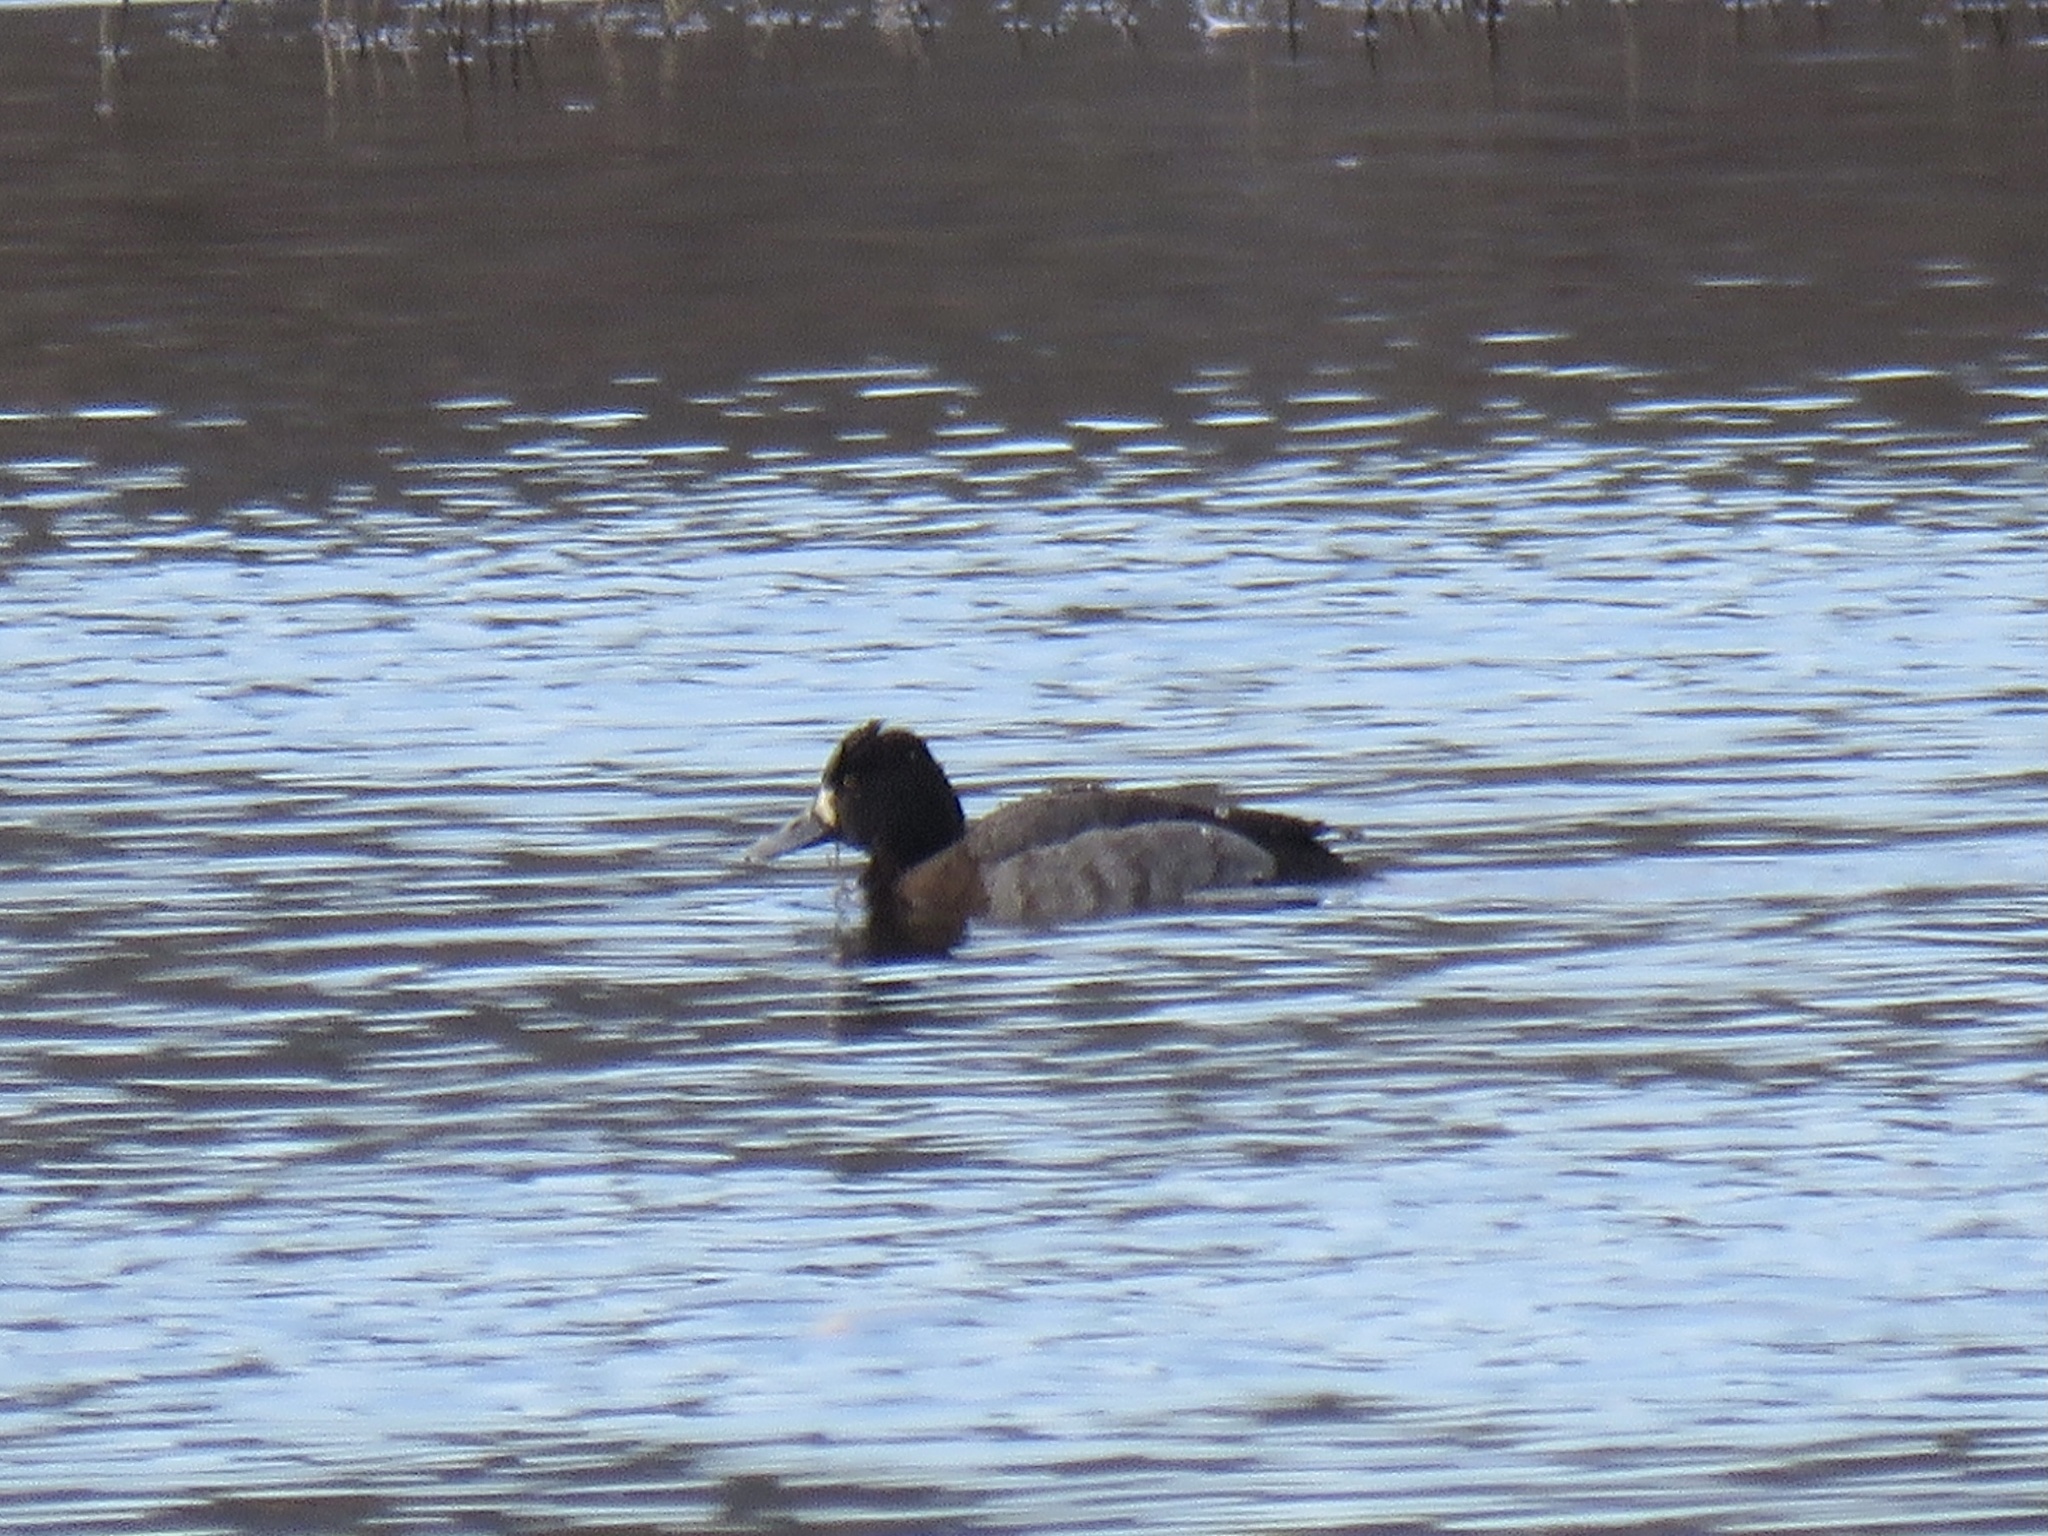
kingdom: Animalia
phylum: Chordata
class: Aves
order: Anseriformes
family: Anatidae
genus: Aythya
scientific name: Aythya affinis
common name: Lesser scaup
